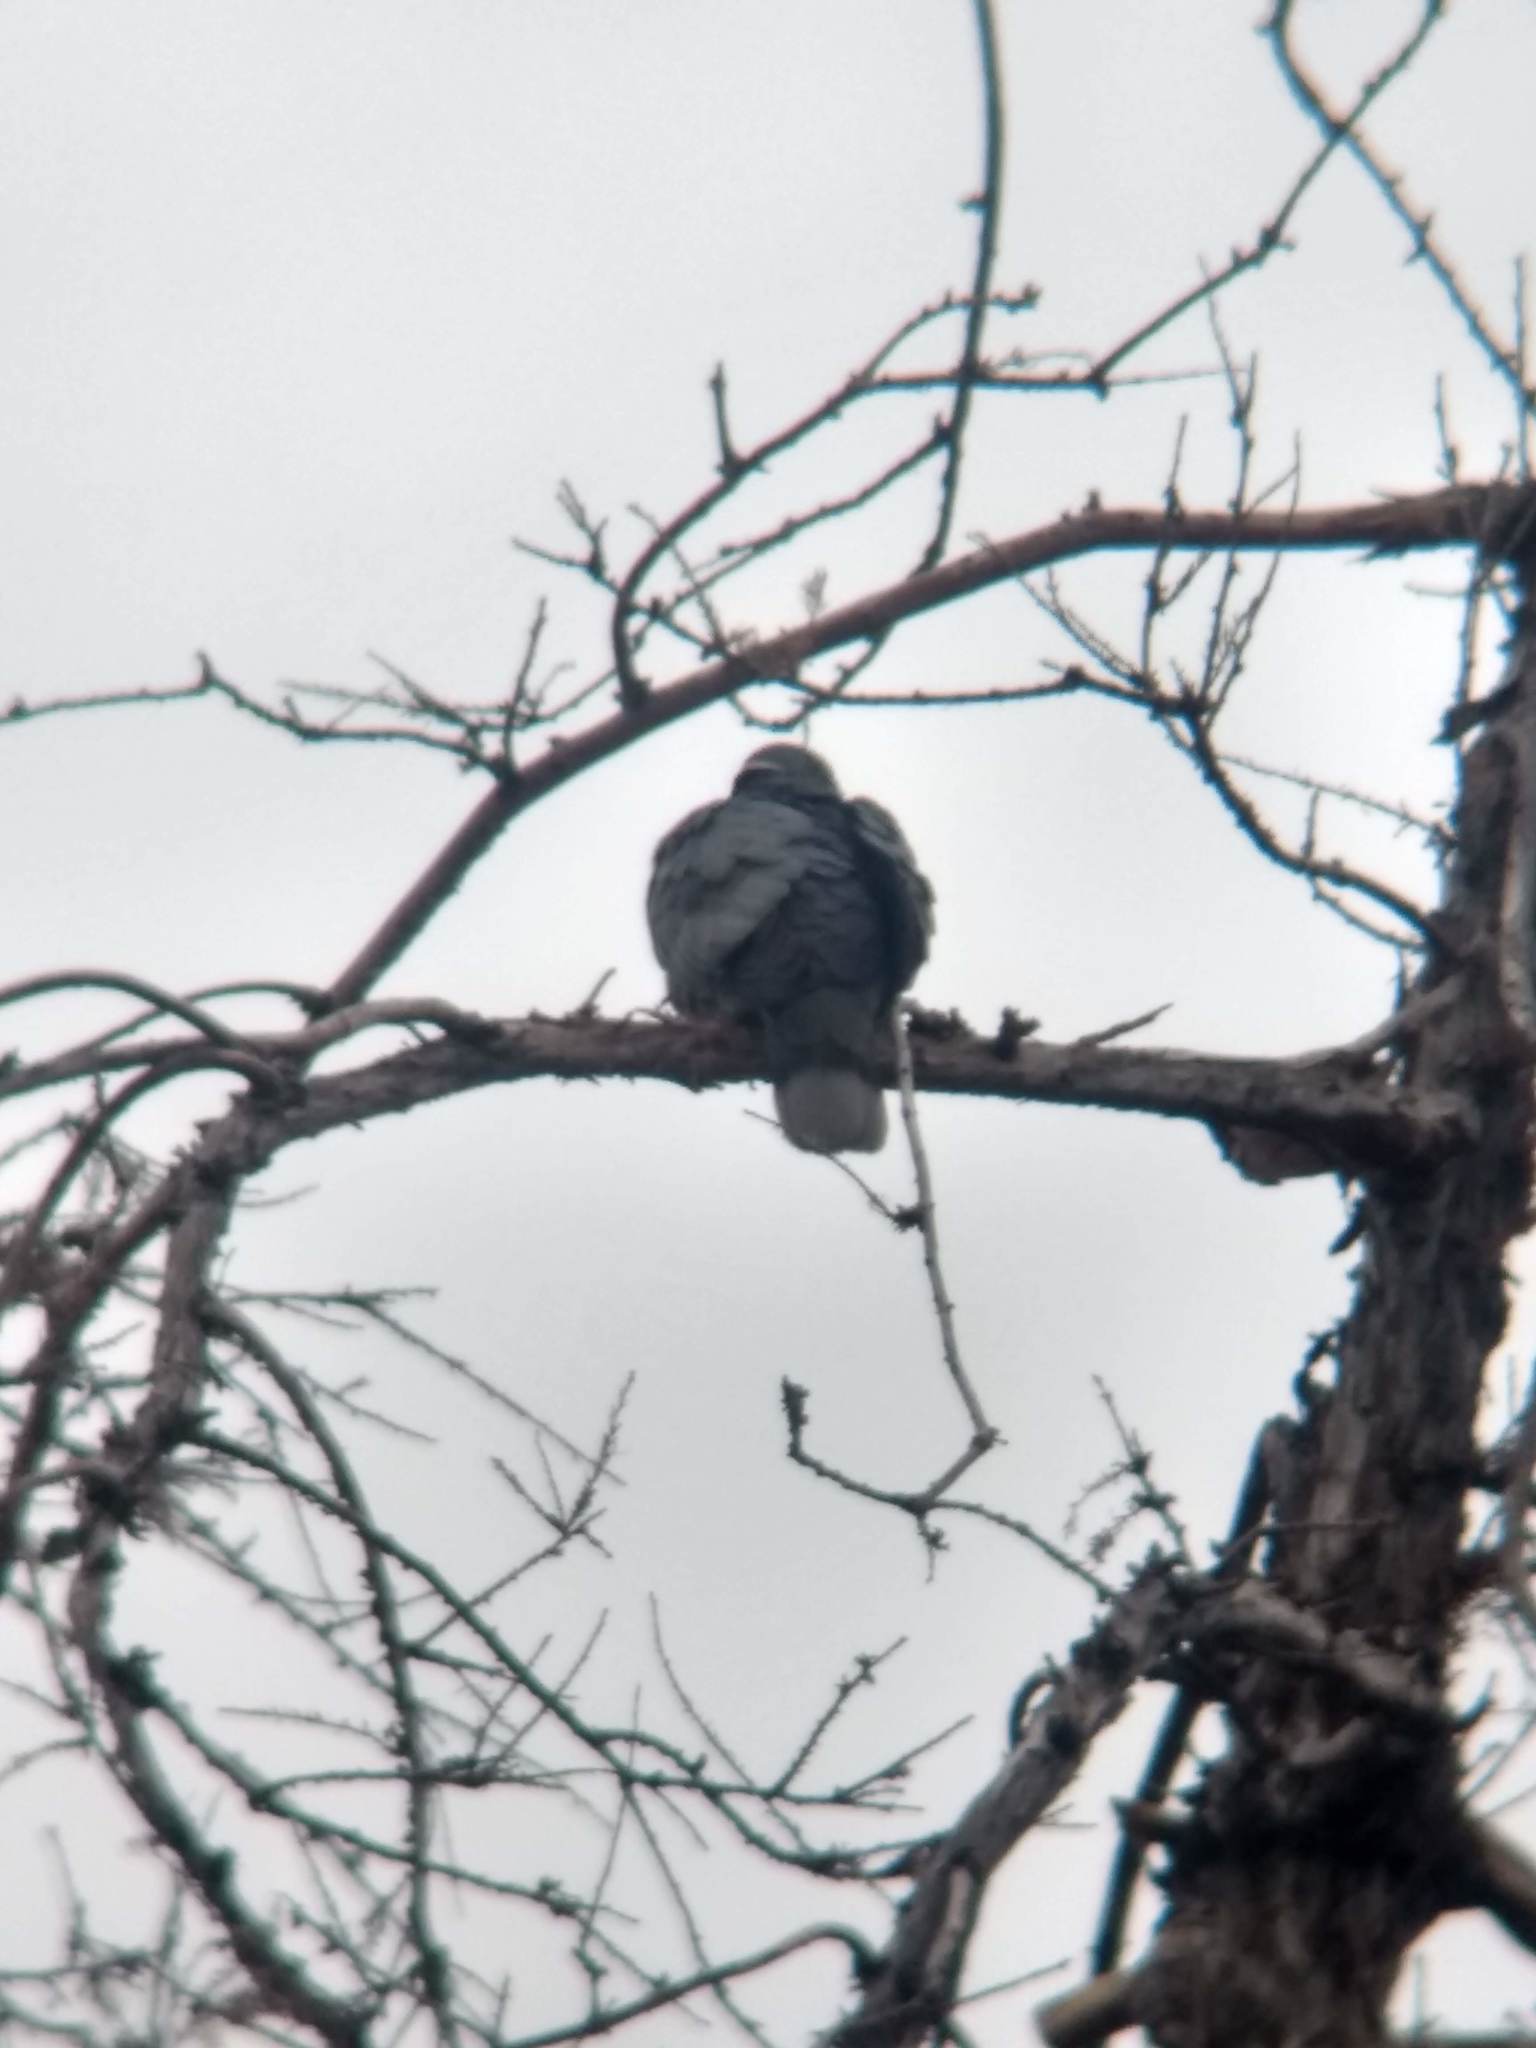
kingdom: Animalia
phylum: Chordata
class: Aves
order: Columbiformes
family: Columbidae
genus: Patagioenas
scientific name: Patagioenas fasciata
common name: Band-tailed pigeon
